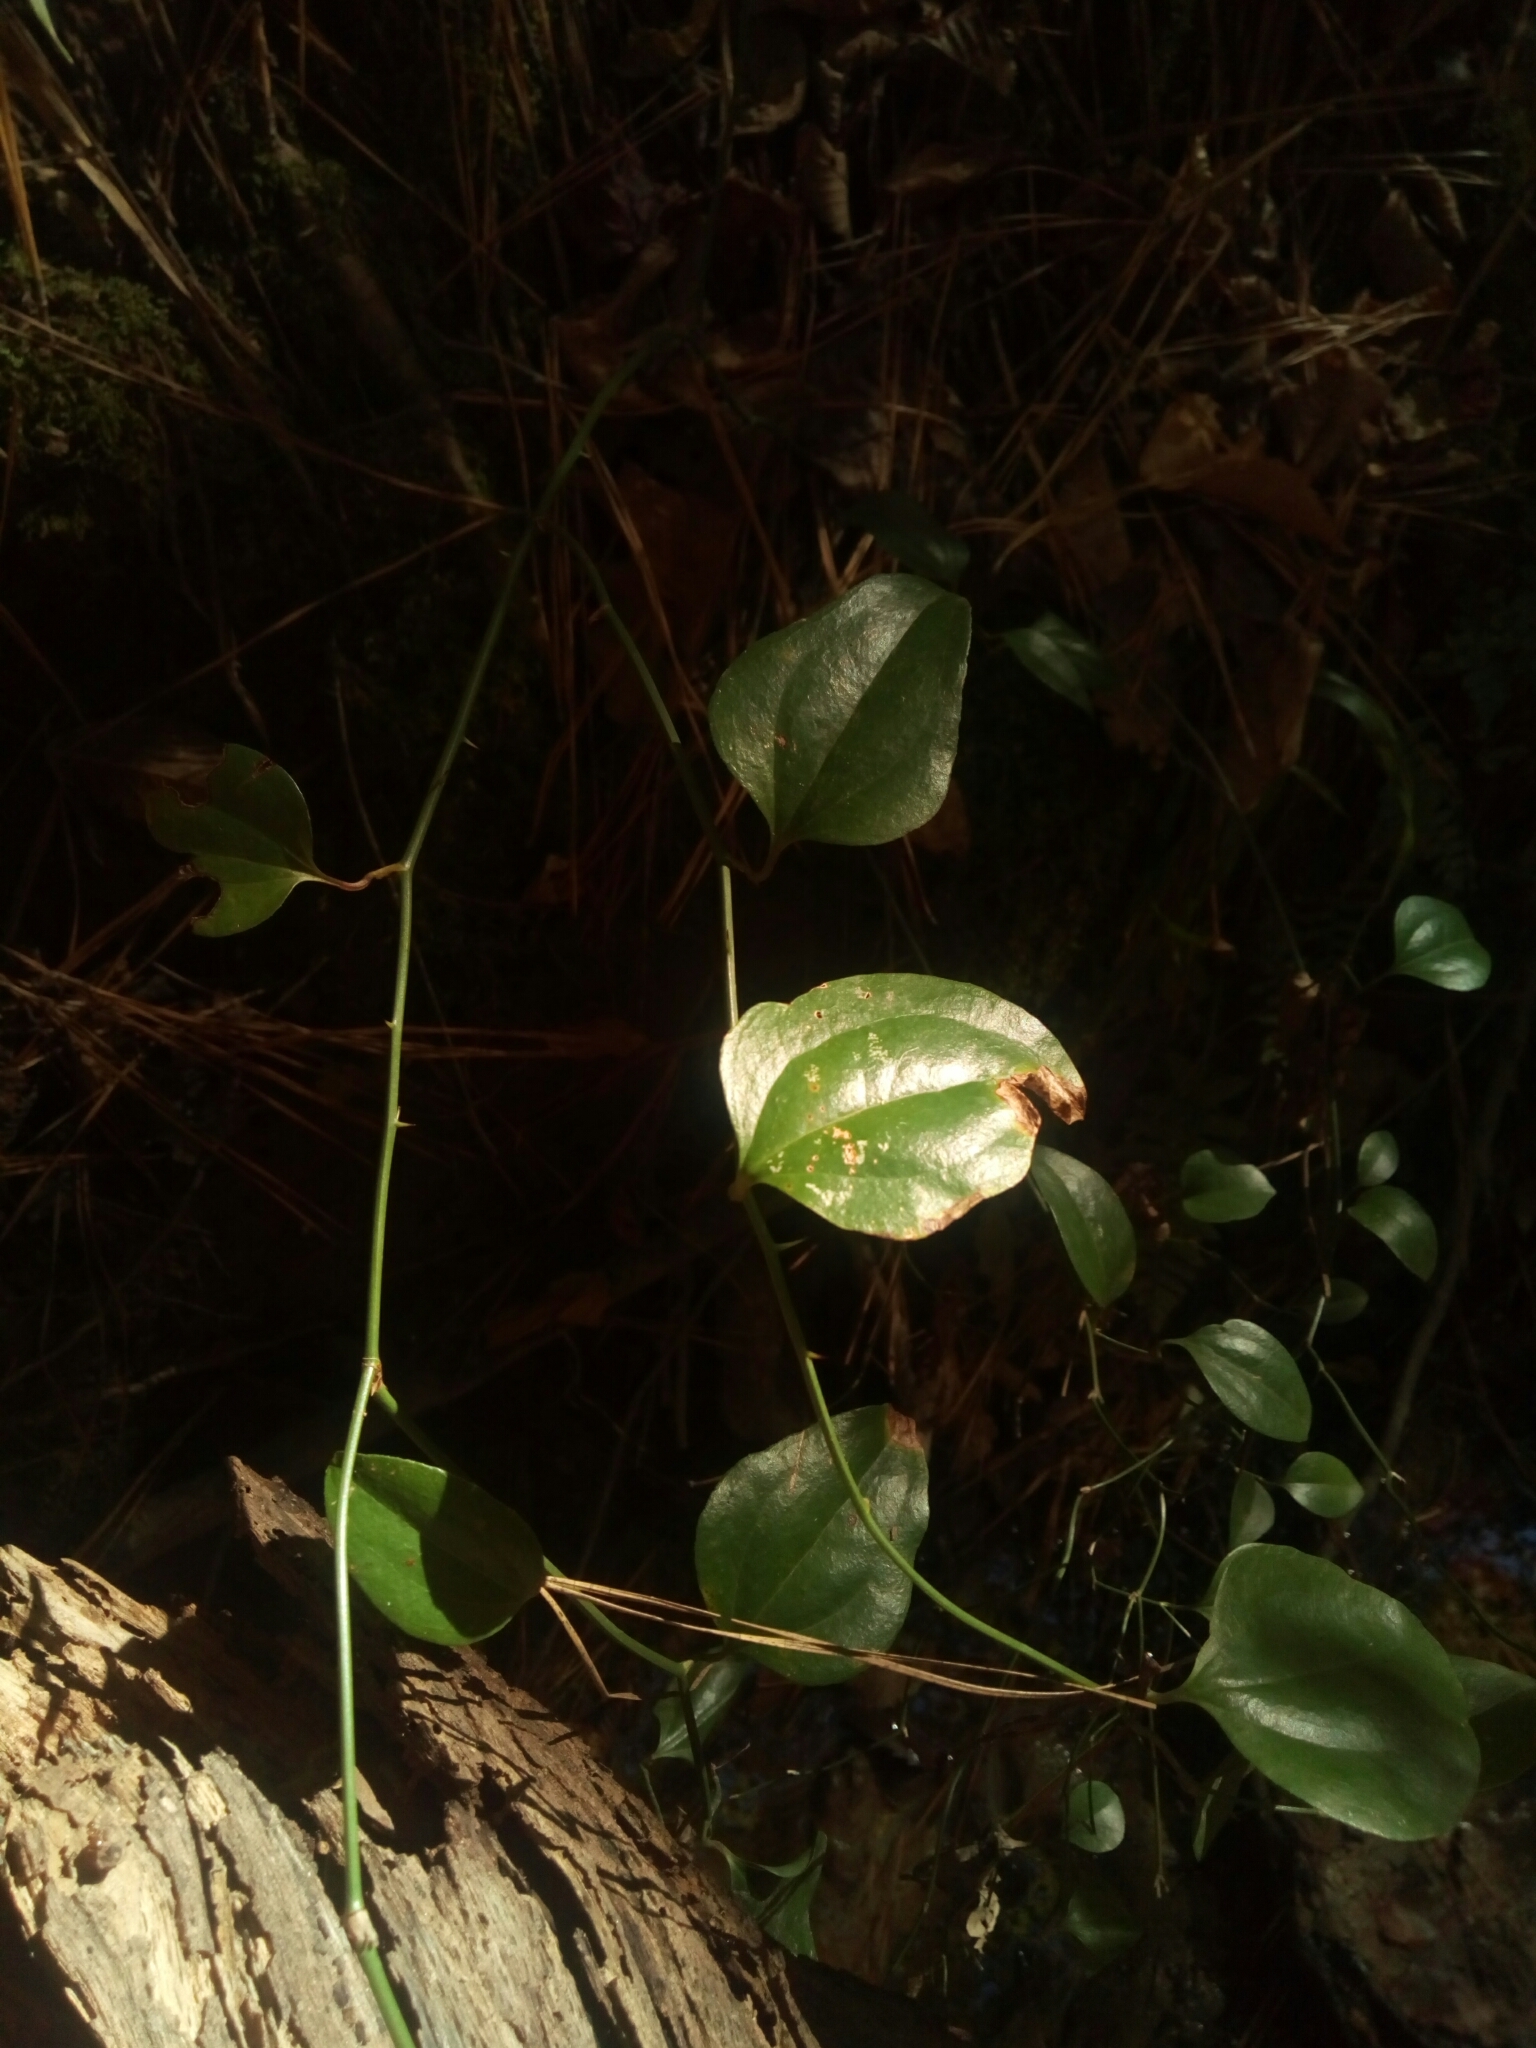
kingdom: Plantae
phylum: Tracheophyta
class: Liliopsida
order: Liliales
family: Smilacaceae
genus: Smilax
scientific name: Smilax rotundifolia
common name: Bullbriar
